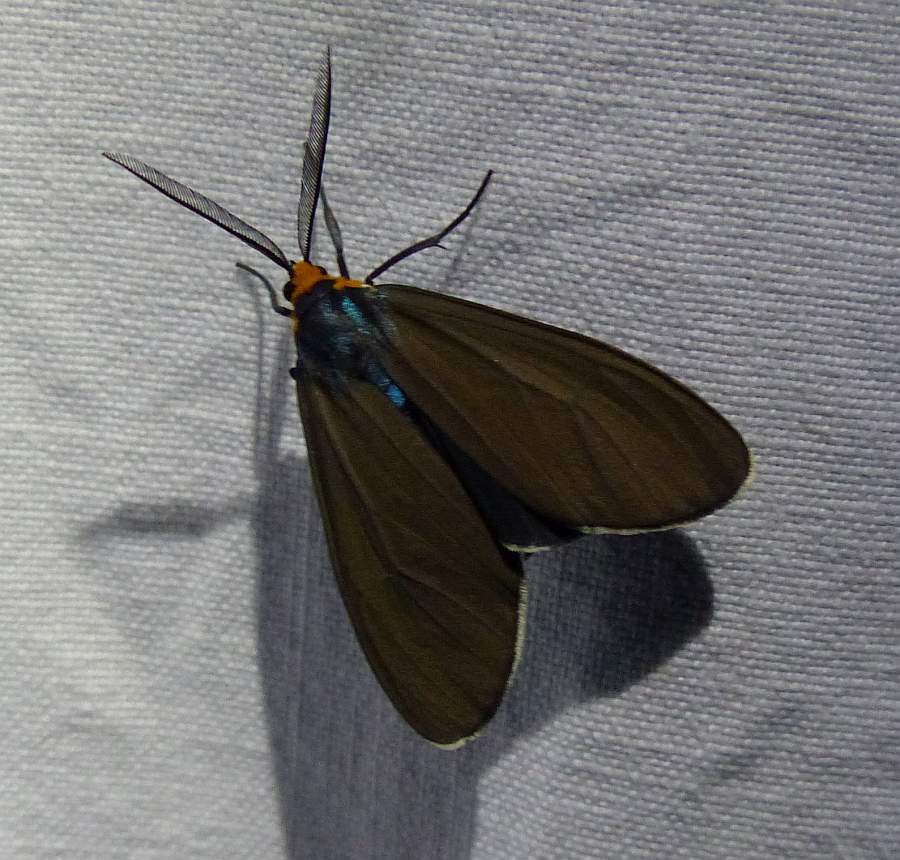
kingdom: Animalia
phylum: Arthropoda
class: Insecta
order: Lepidoptera
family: Erebidae
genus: Ctenucha
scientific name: Ctenucha virginica
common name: Virginia ctenucha moth
